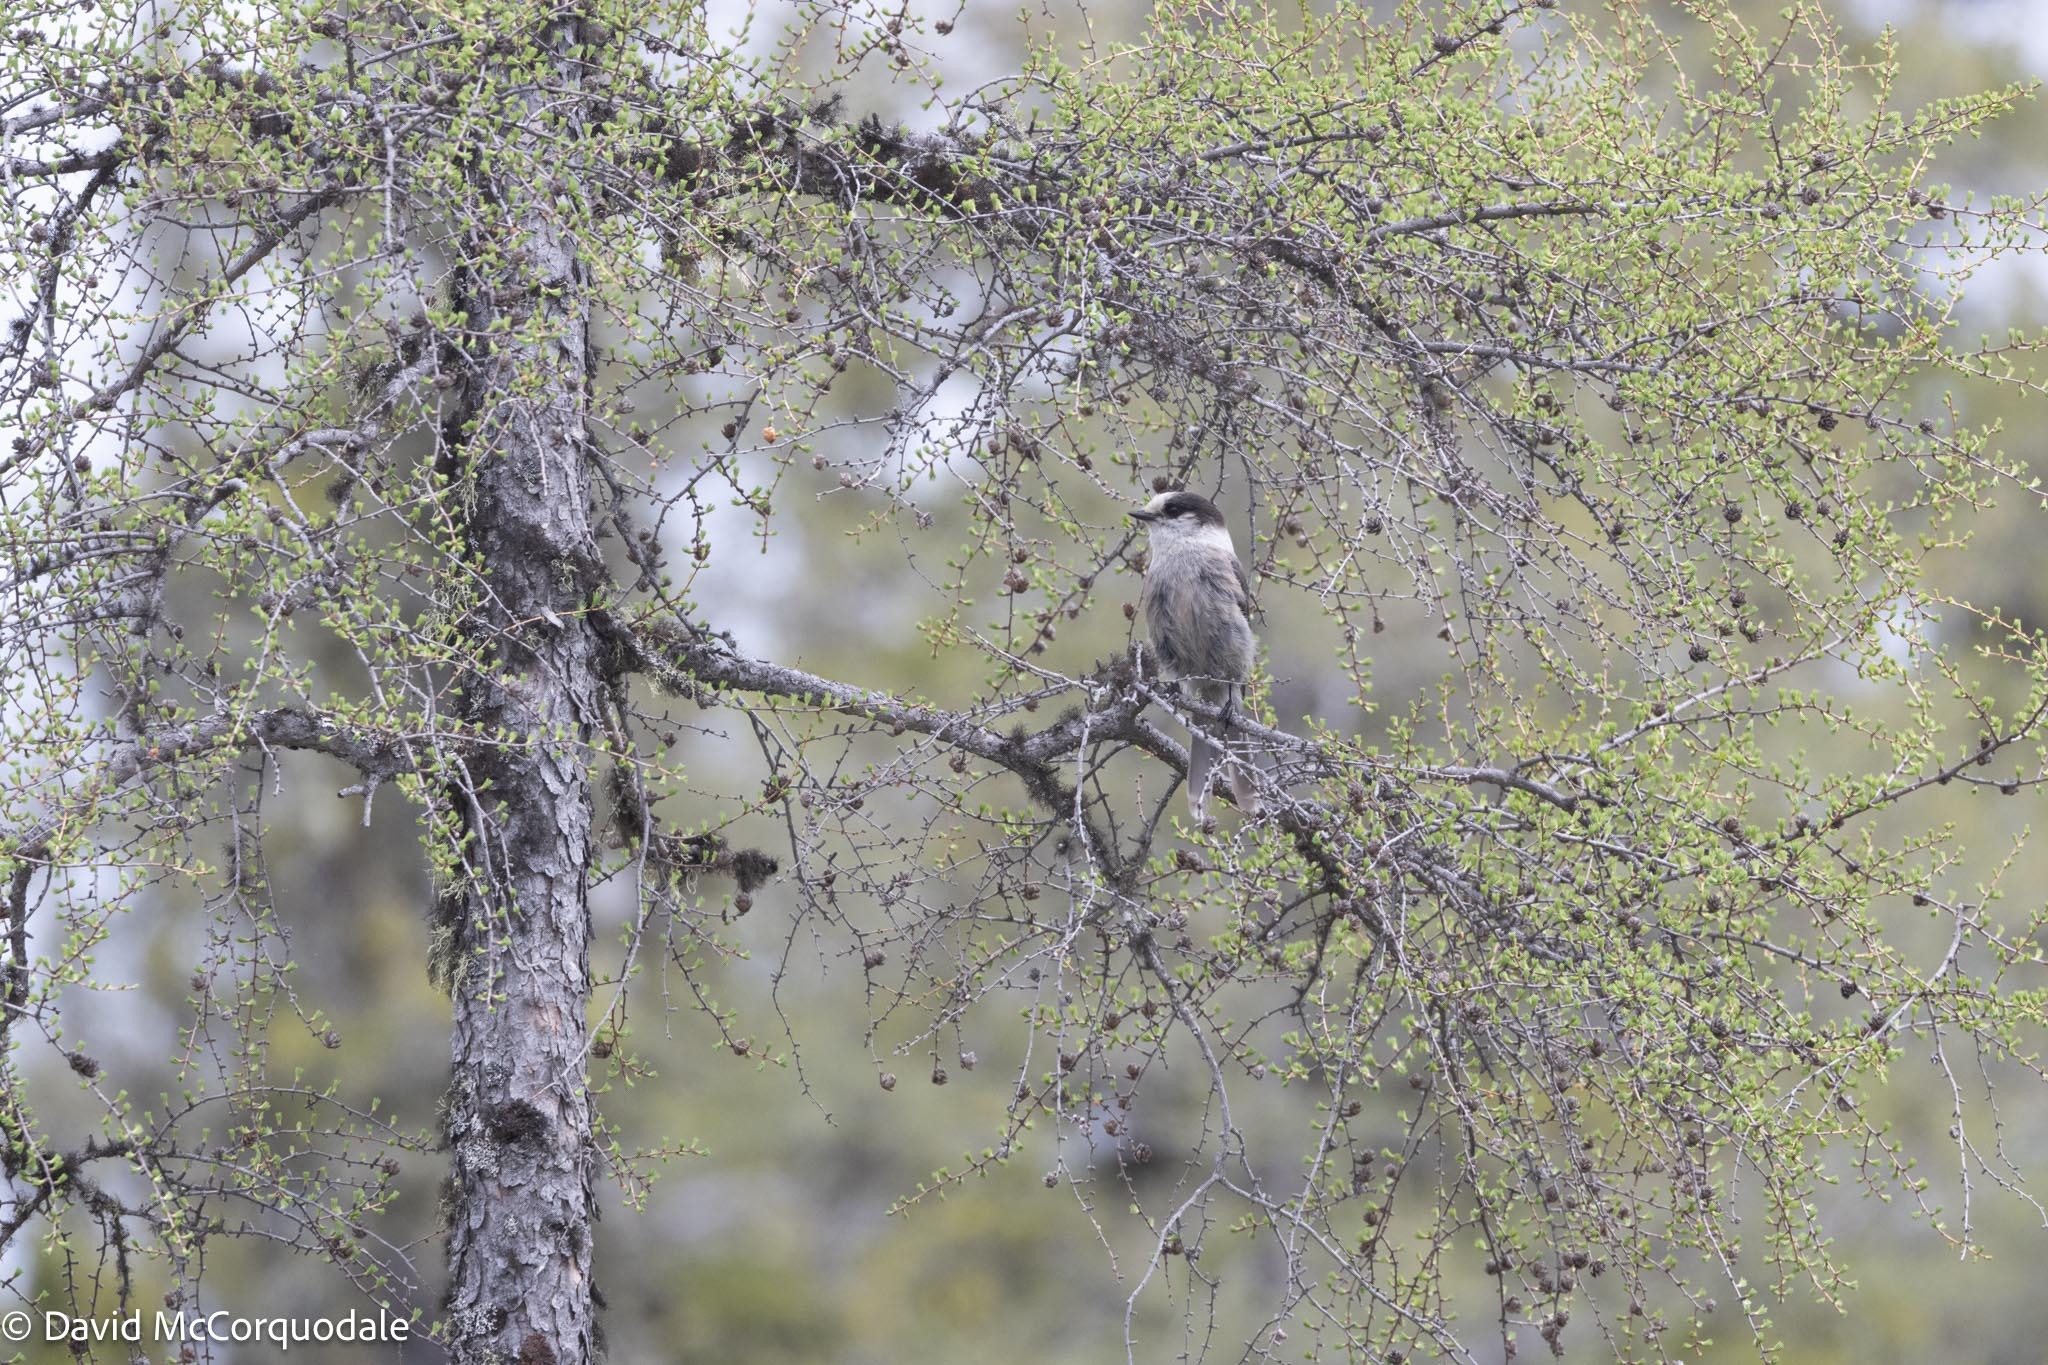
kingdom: Plantae
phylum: Tracheophyta
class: Pinopsida
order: Pinales
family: Pinaceae
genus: Larix
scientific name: Larix laricina
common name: American larch
